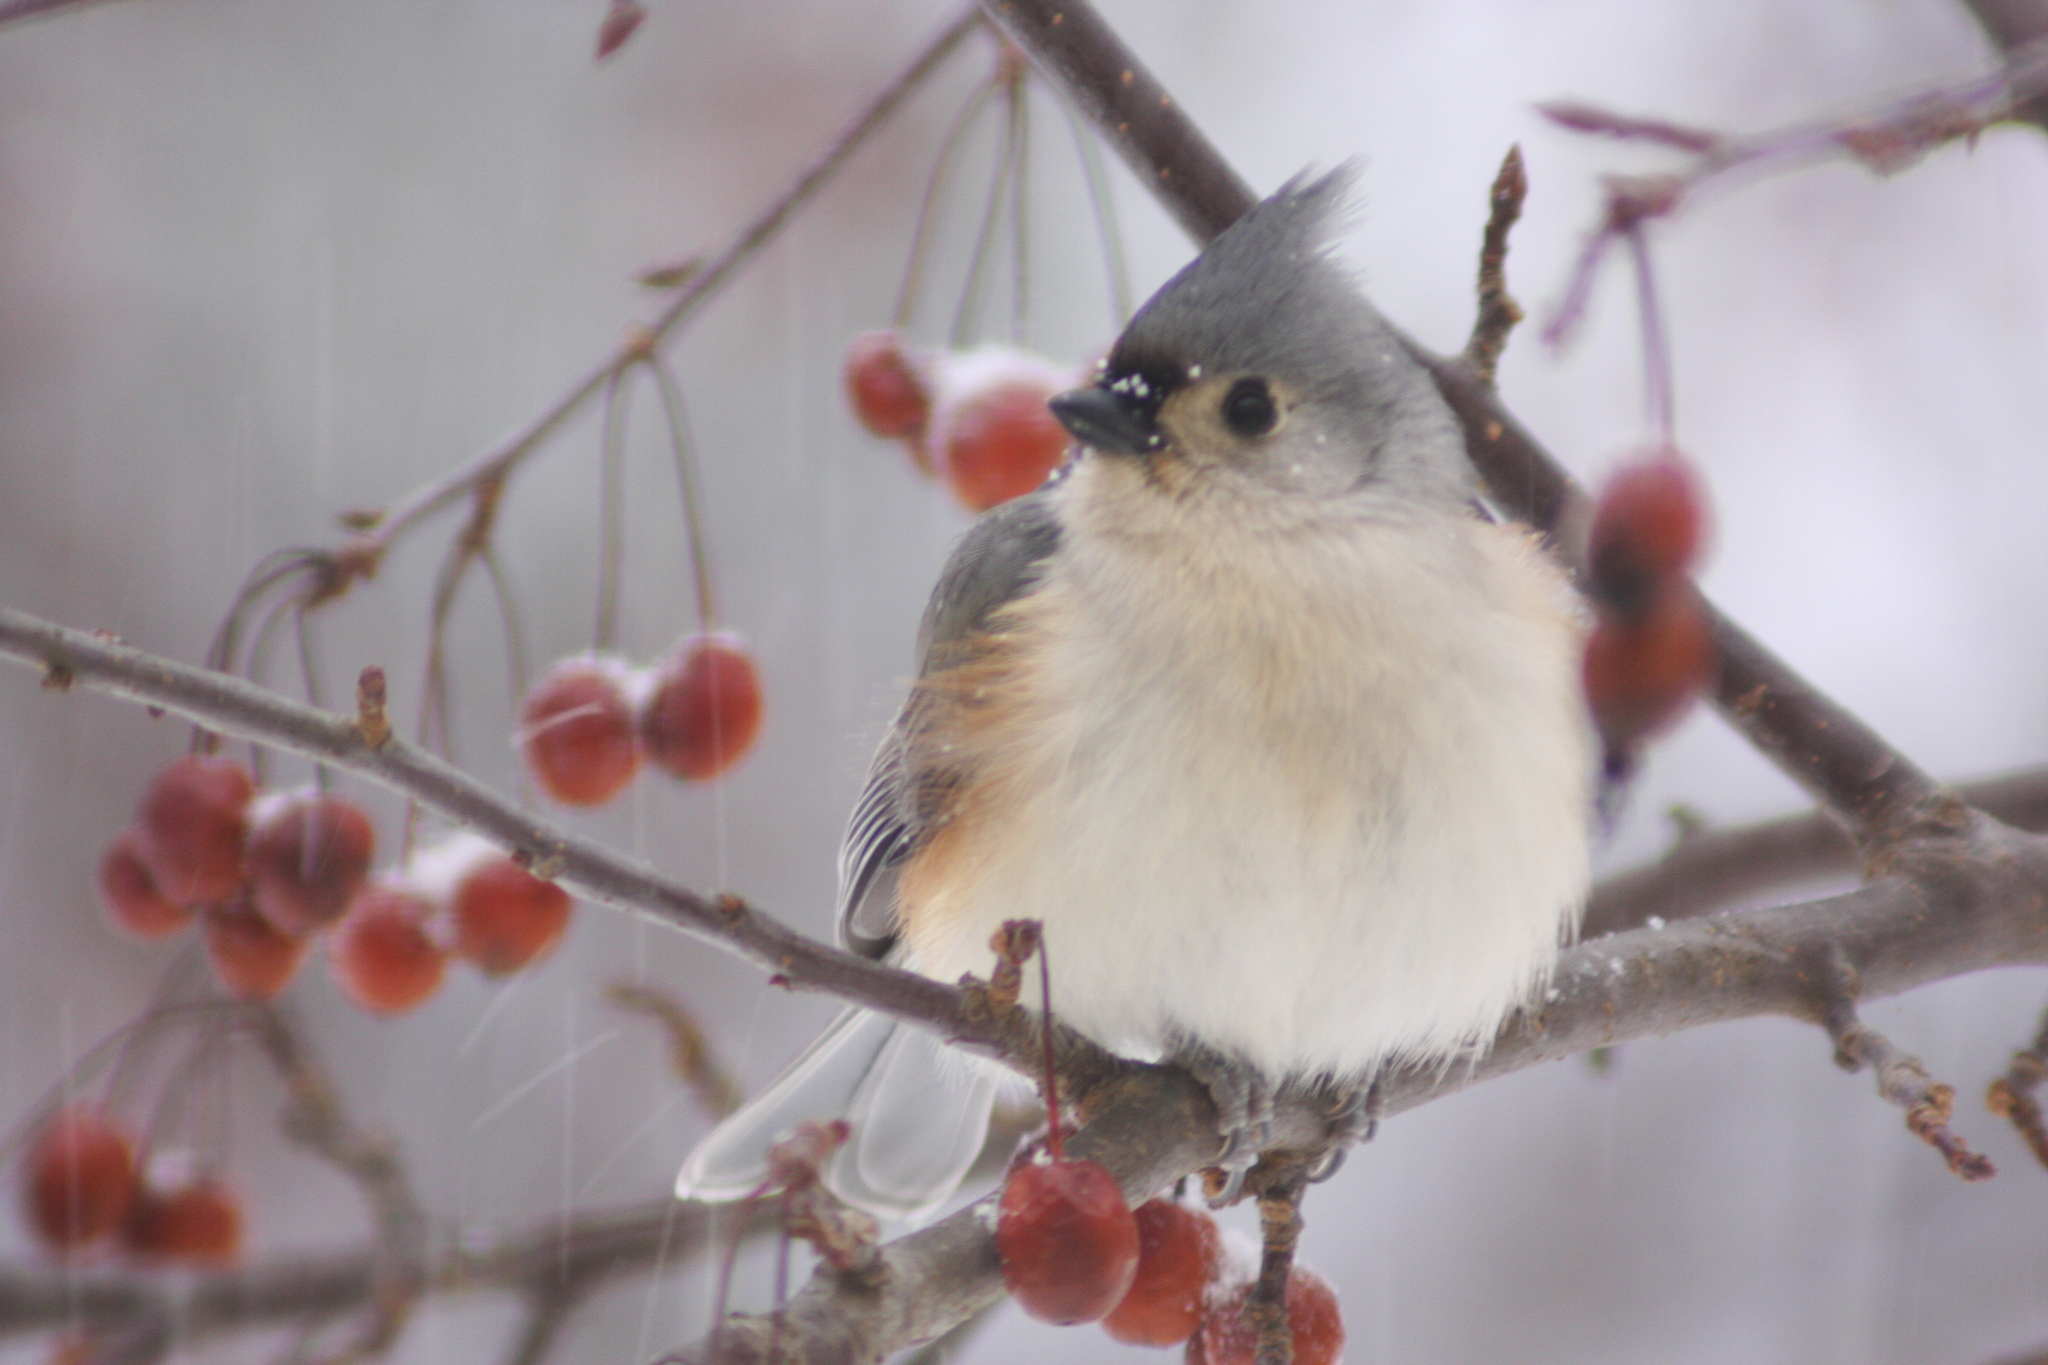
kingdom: Animalia
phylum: Chordata
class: Aves
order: Passeriformes
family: Paridae
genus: Baeolophus
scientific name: Baeolophus bicolor
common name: Tufted titmouse
